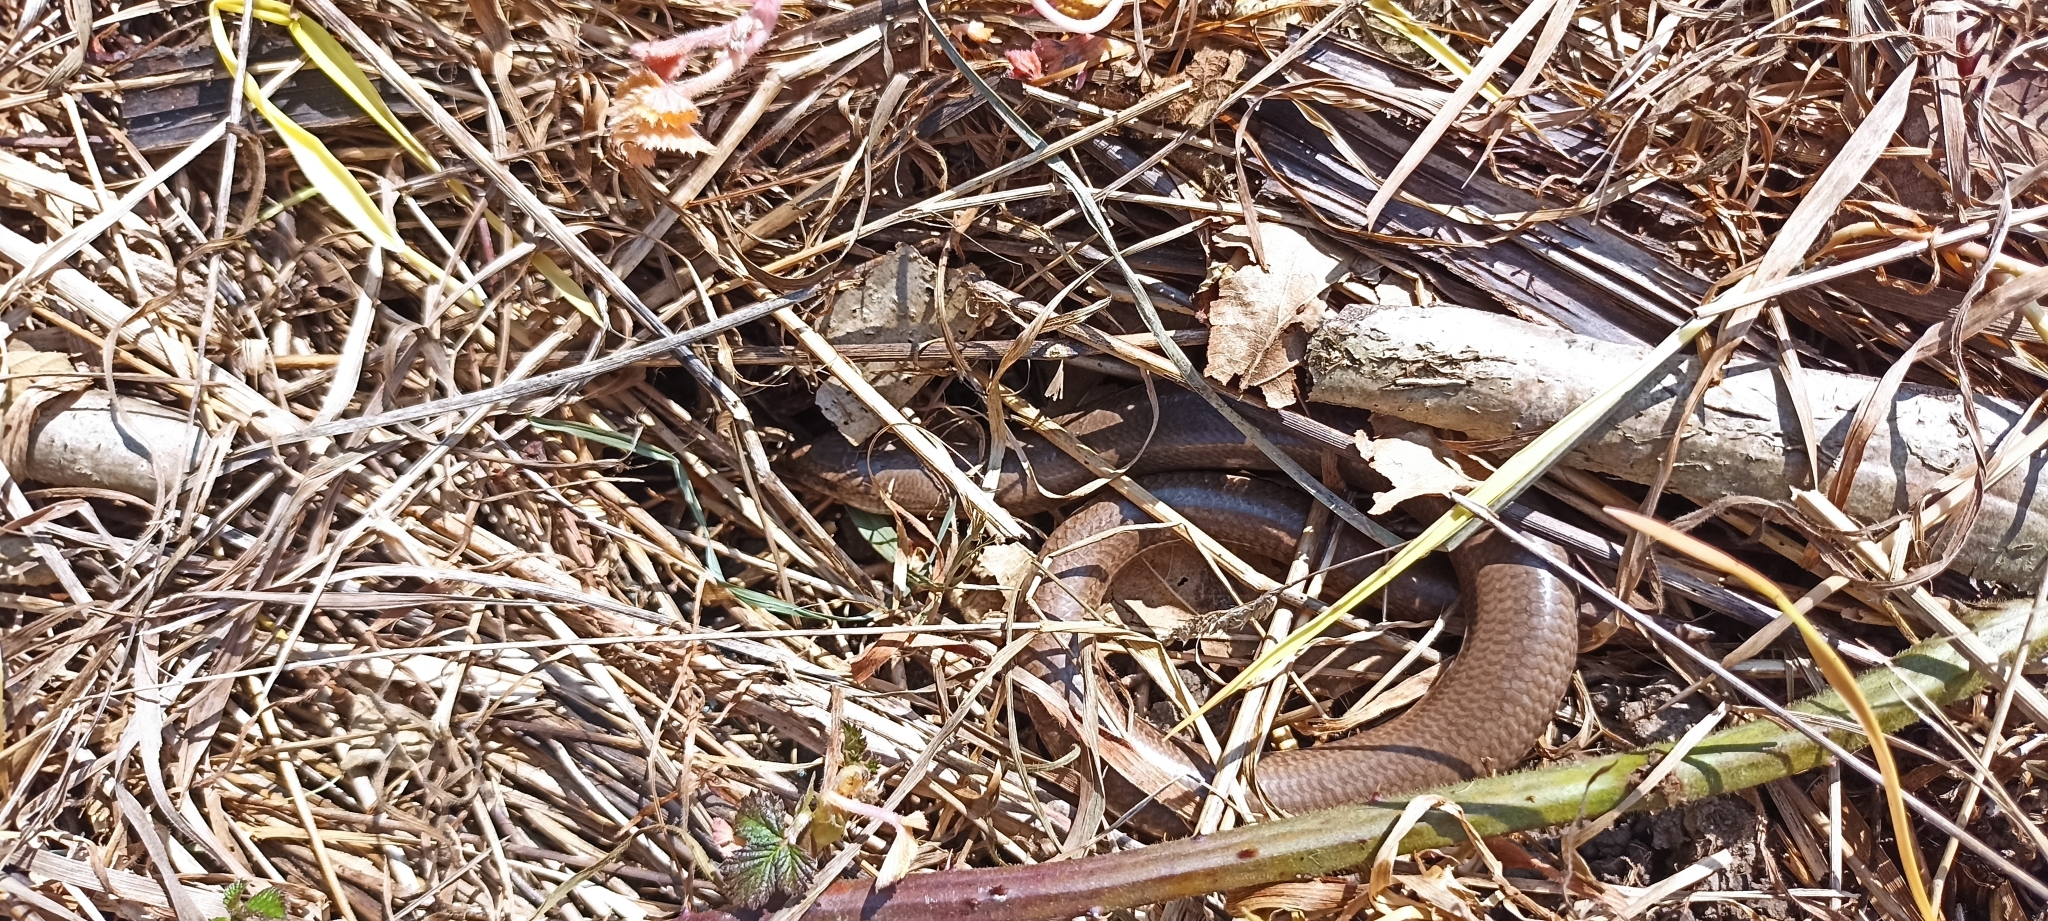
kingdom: Animalia
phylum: Chordata
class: Squamata
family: Anguidae
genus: Anguis
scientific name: Anguis fragilis
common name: Slow worm
